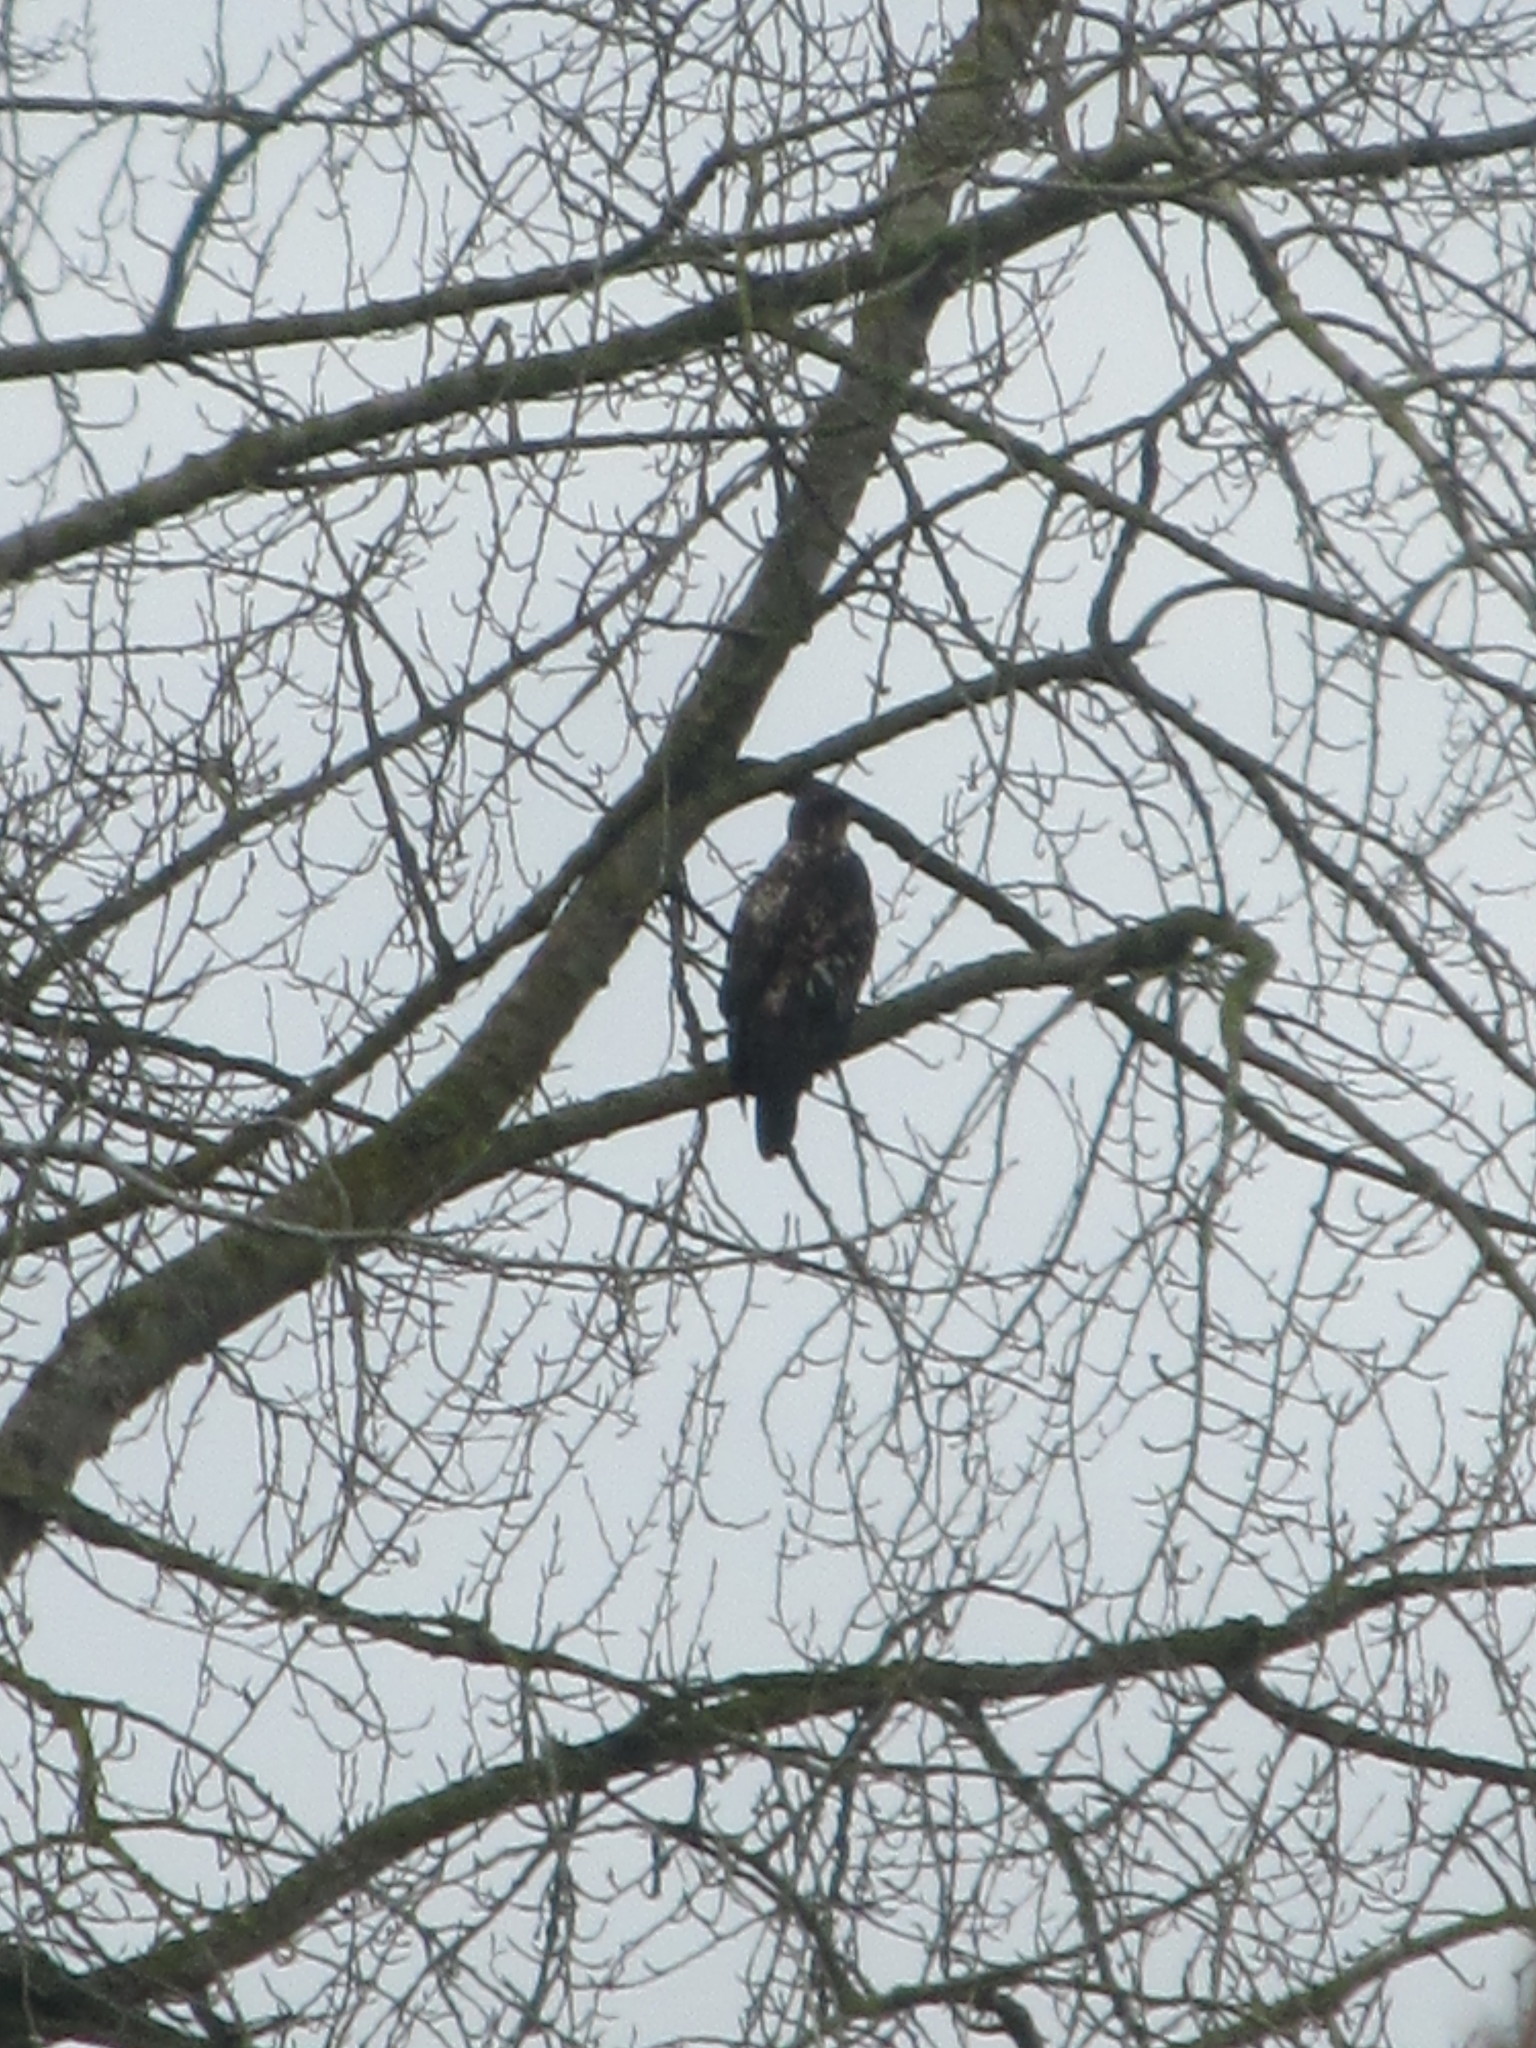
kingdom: Animalia
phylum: Chordata
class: Aves
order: Accipitriformes
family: Accipitridae
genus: Haliaeetus
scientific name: Haliaeetus leucocephalus
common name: Bald eagle
